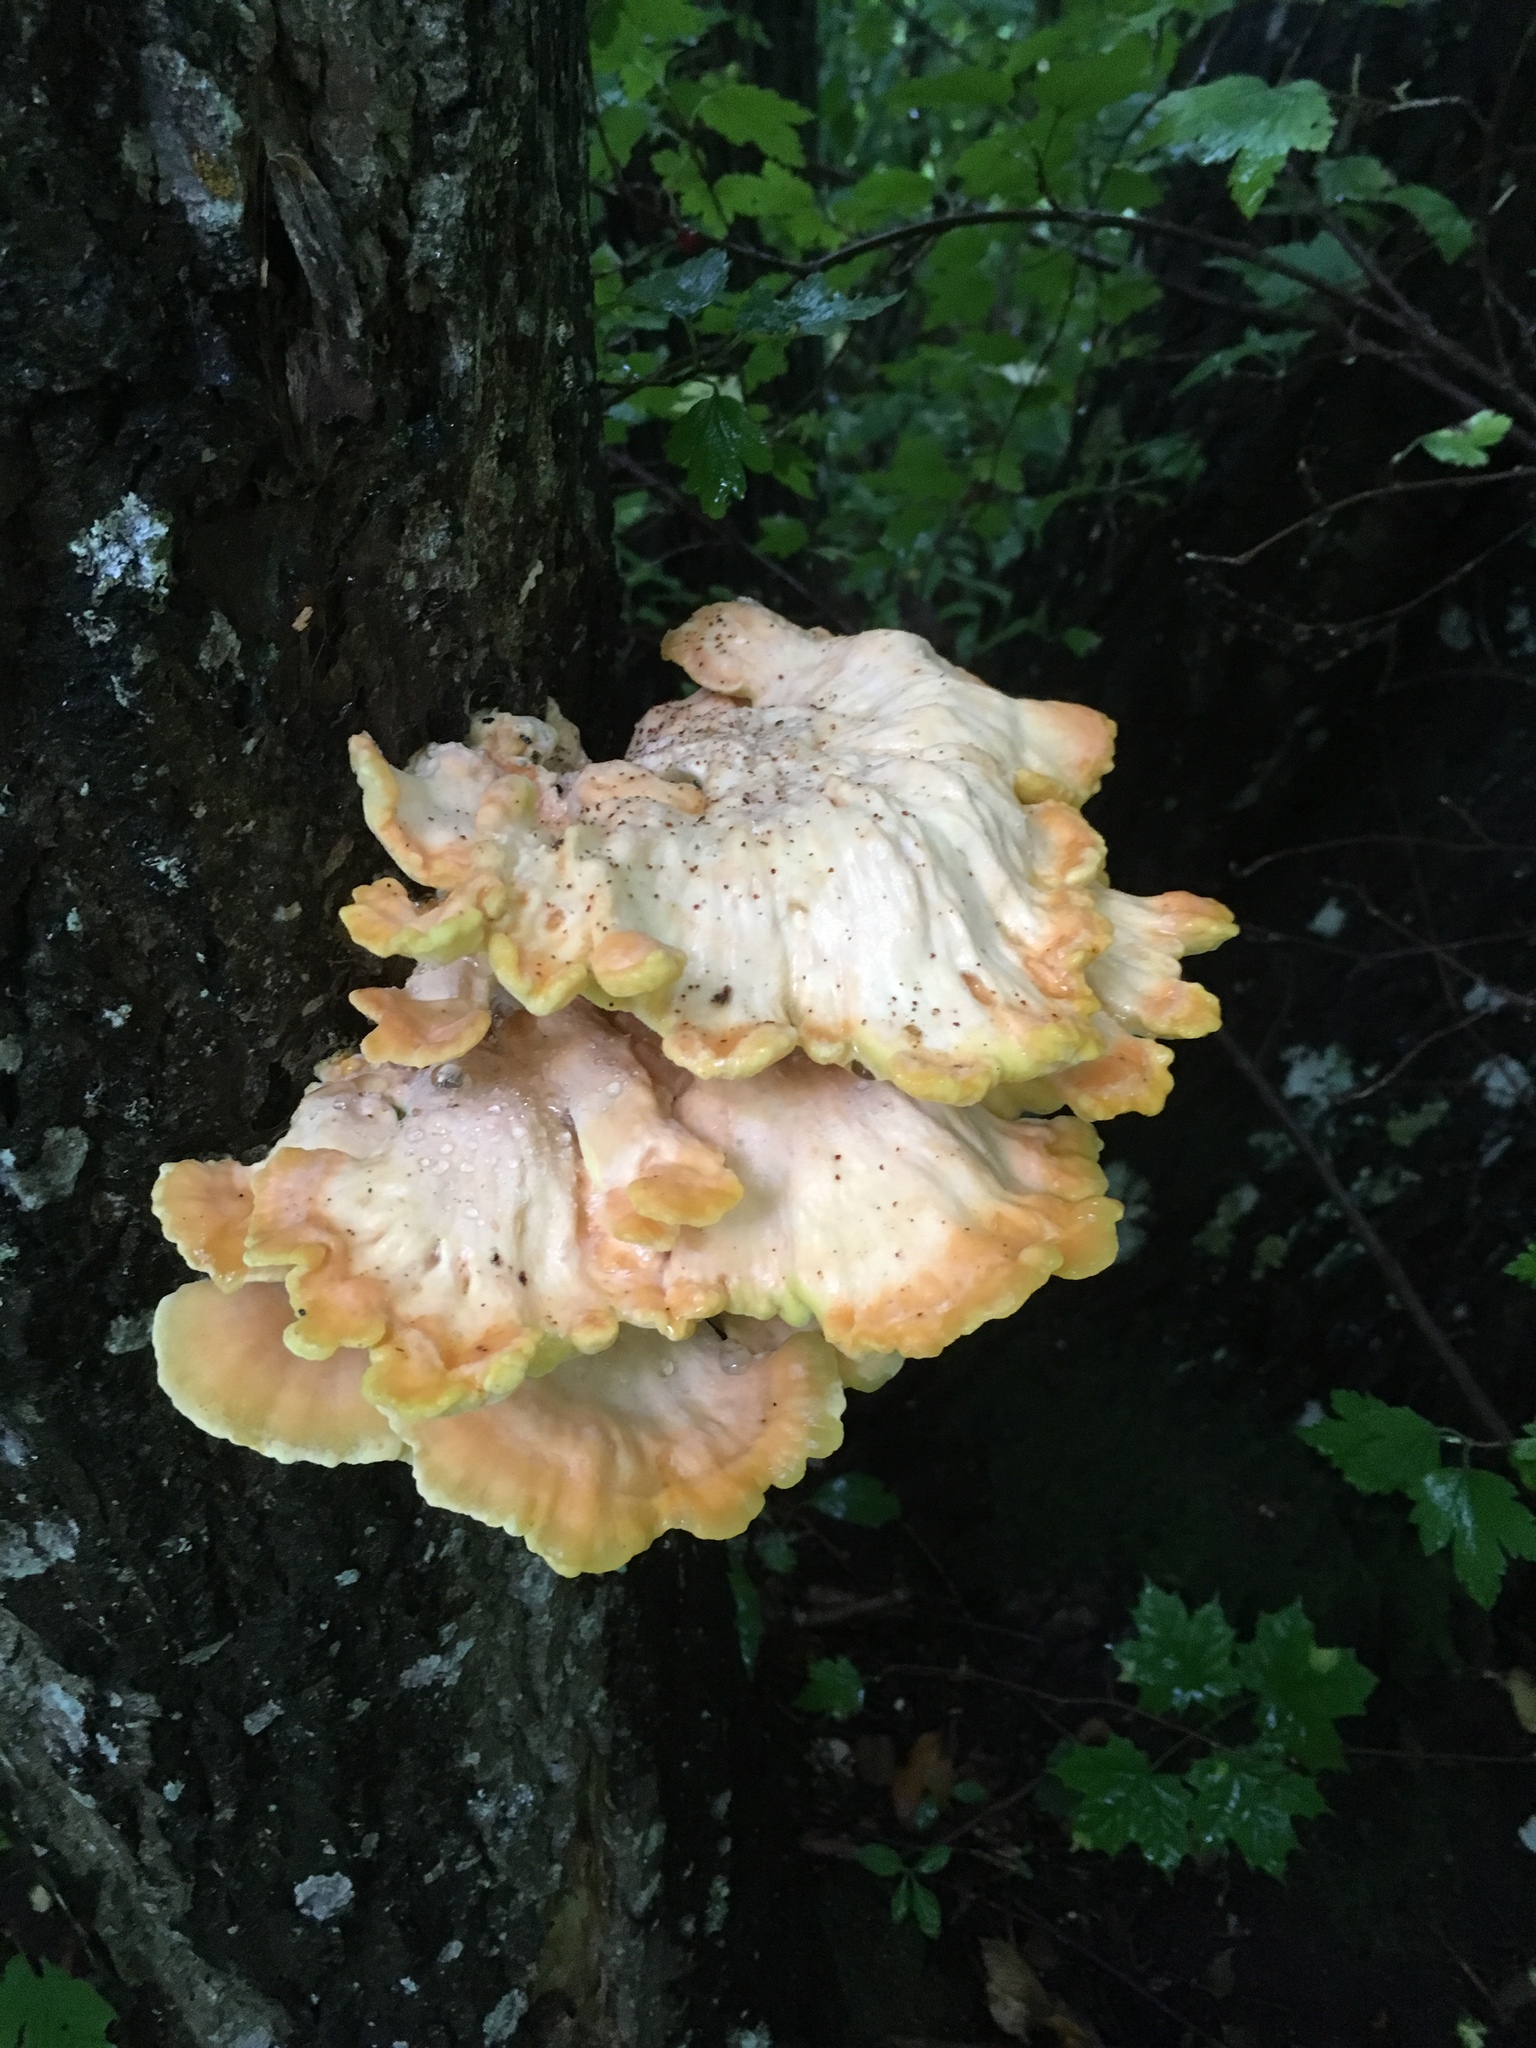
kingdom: Fungi
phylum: Basidiomycota
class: Agaricomycetes
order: Polyporales
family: Laetiporaceae
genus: Laetiporus
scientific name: Laetiporus sulphureus
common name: Chicken of the woods
